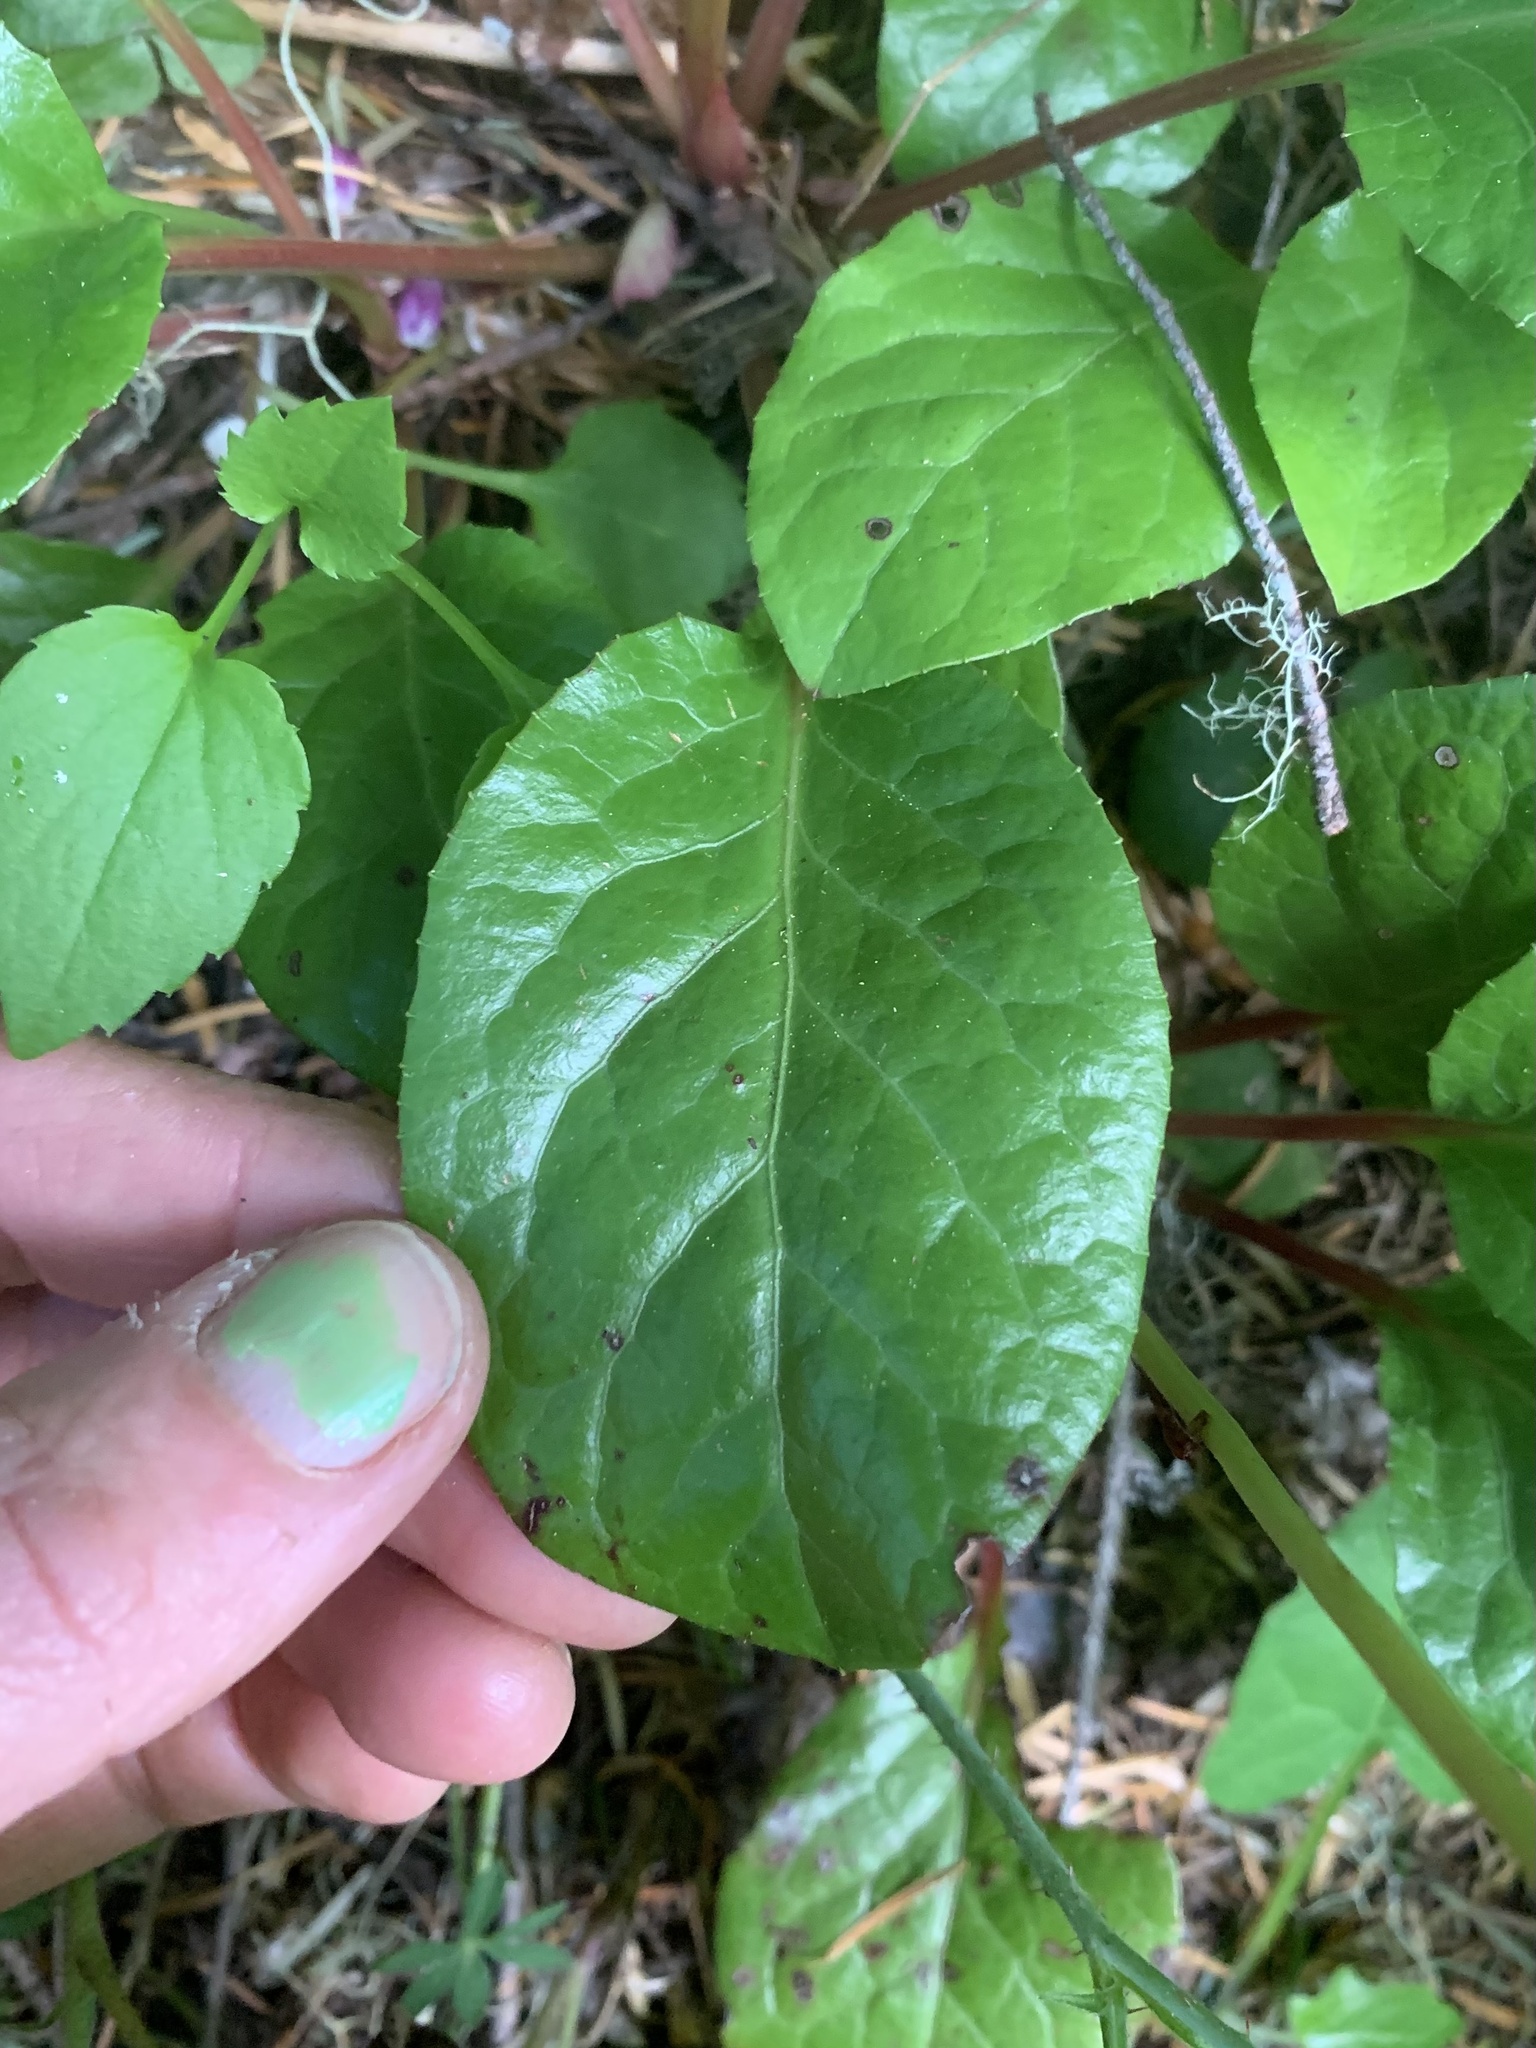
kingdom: Plantae
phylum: Tracheophyta
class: Magnoliopsida
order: Ericales
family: Ericaceae
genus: Pyrola
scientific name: Pyrola asarifolia
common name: Bog wintergreen
